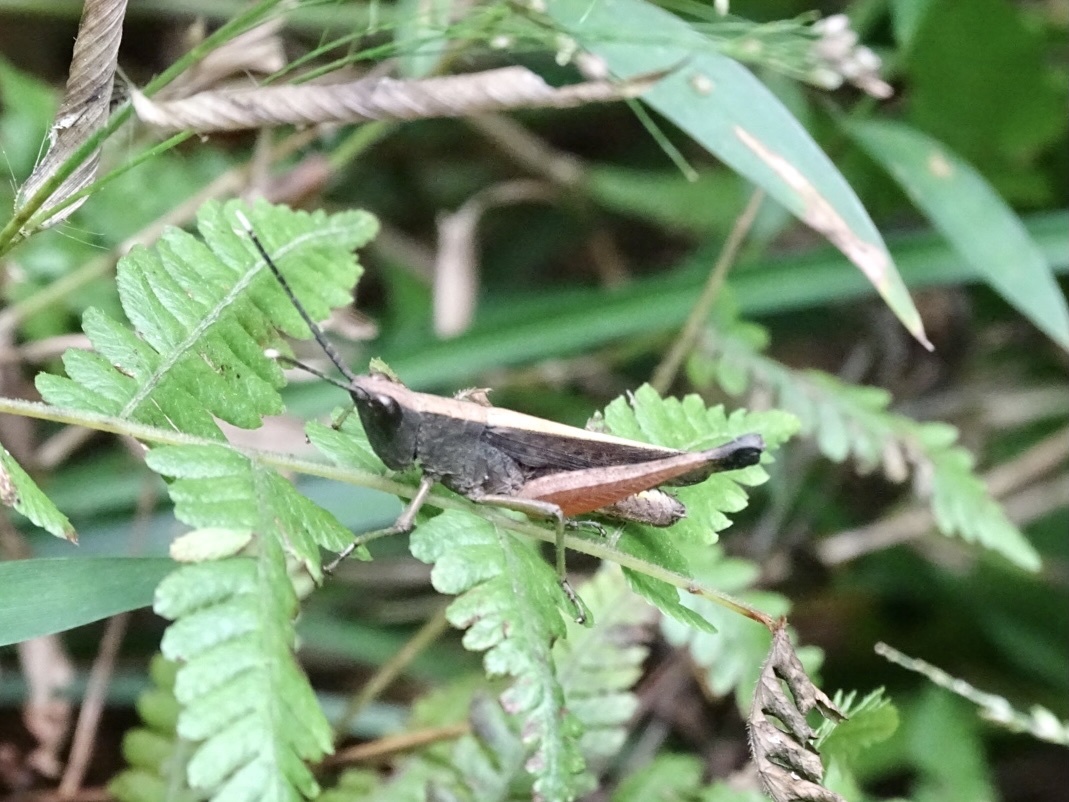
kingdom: Animalia
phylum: Arthropoda
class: Insecta
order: Orthoptera
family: Acrididae
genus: Phlaeoba
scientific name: Phlaeoba antennata
